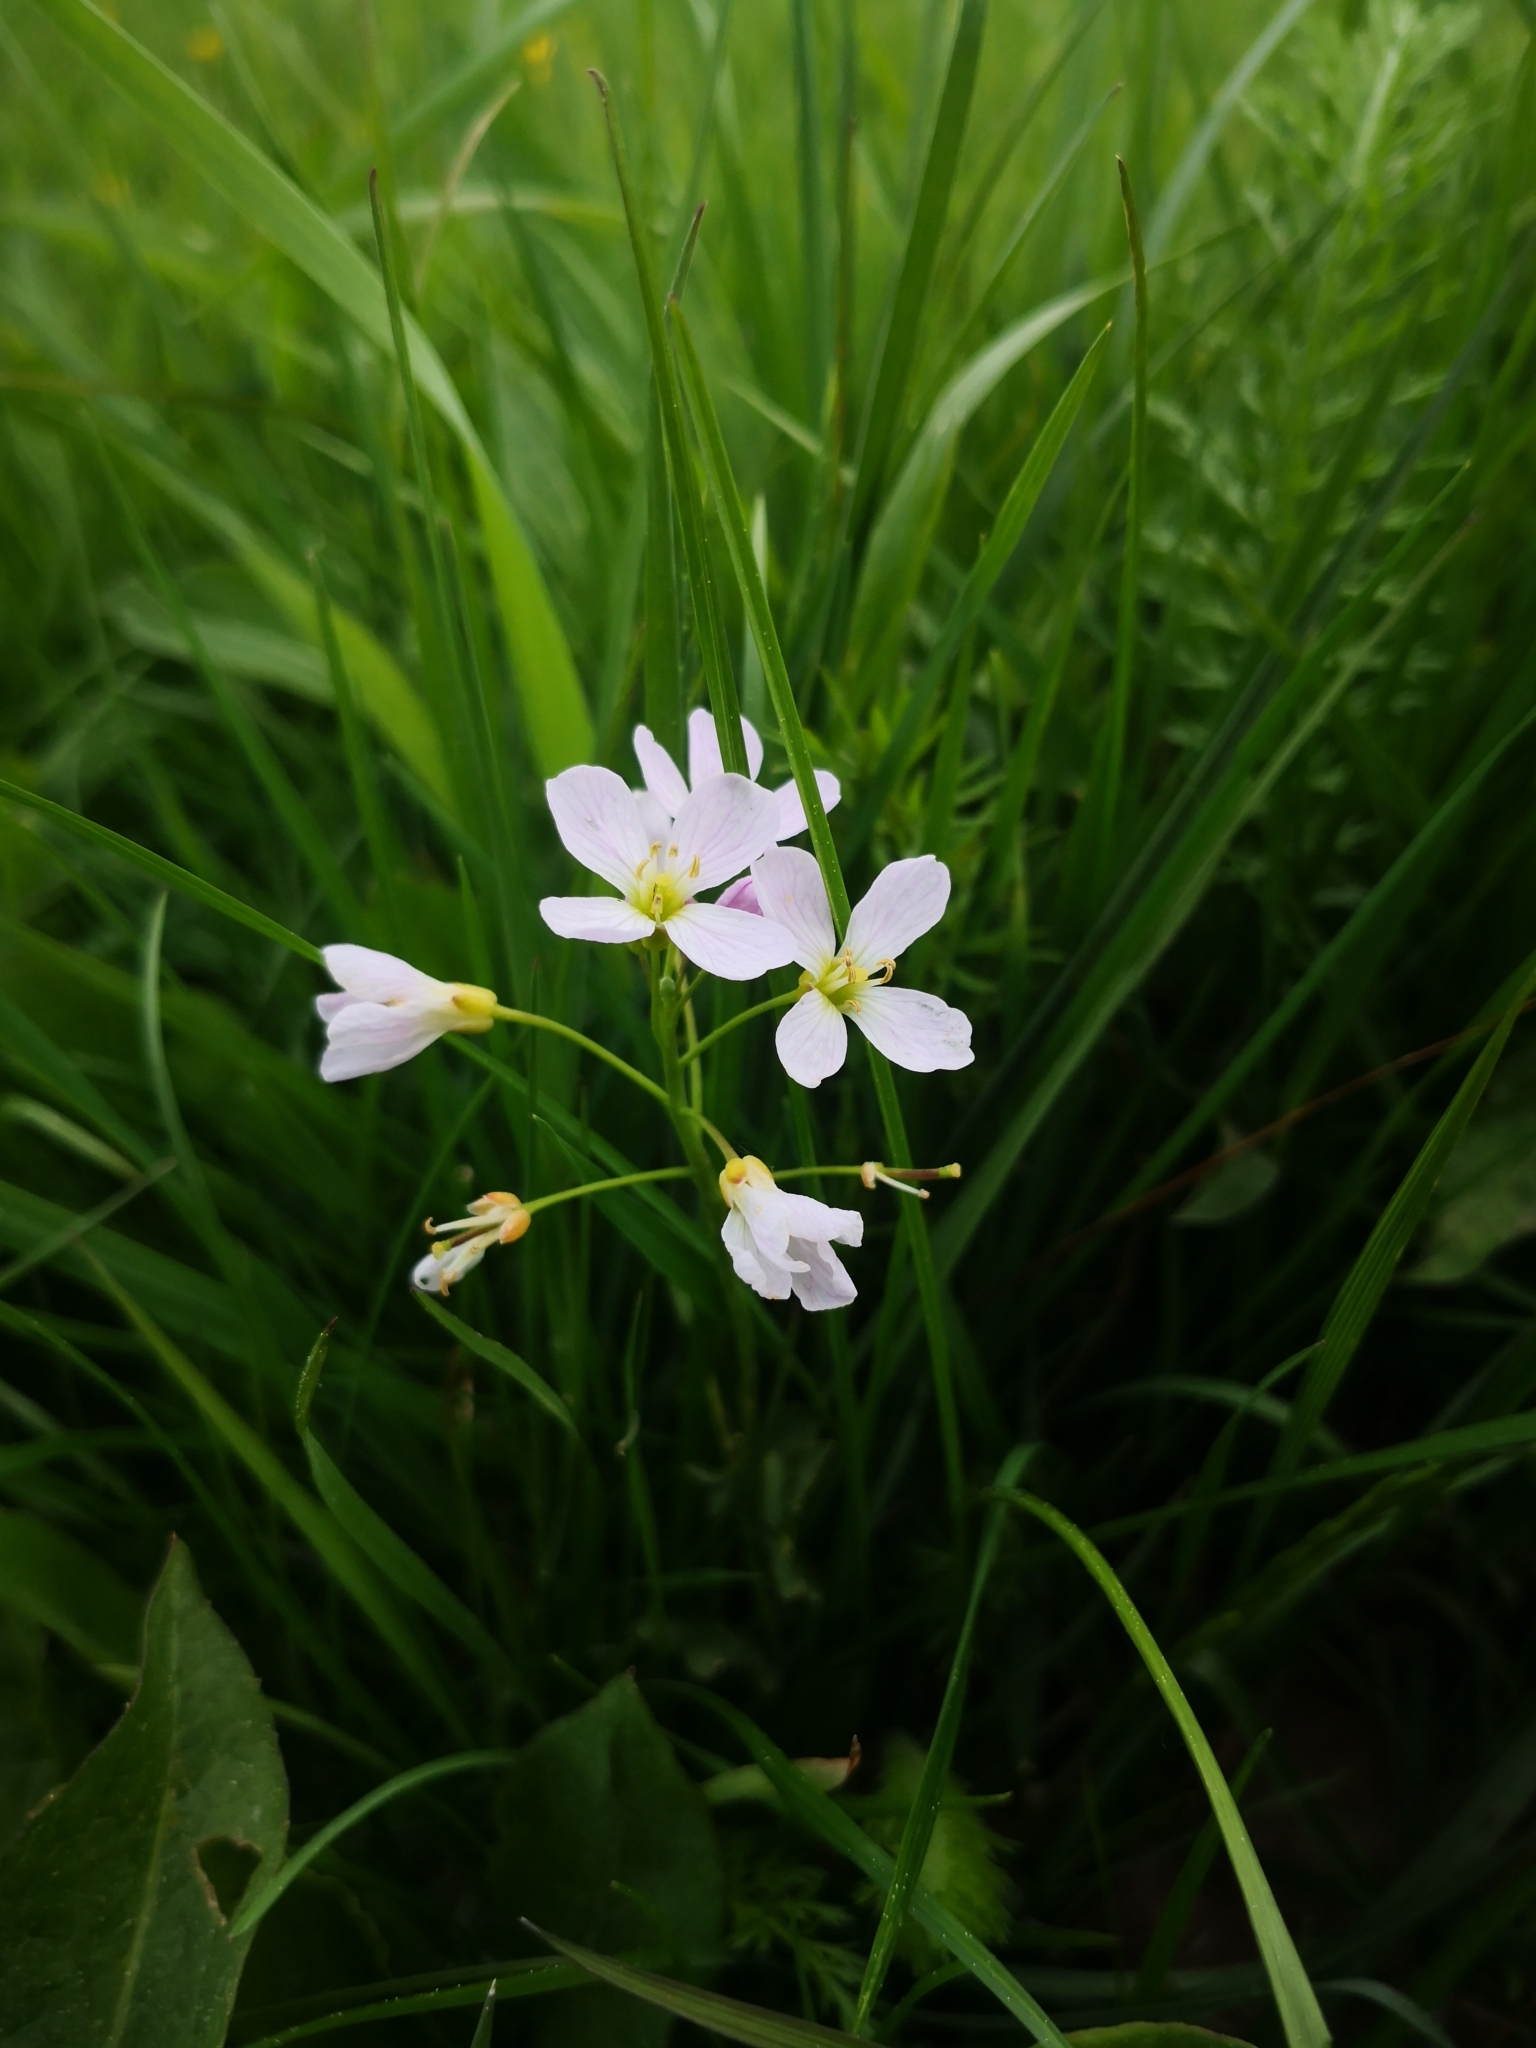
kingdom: Plantae
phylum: Tracheophyta
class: Magnoliopsida
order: Brassicales
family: Brassicaceae
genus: Cardamine
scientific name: Cardamine dentata
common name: Toothed bittercress
